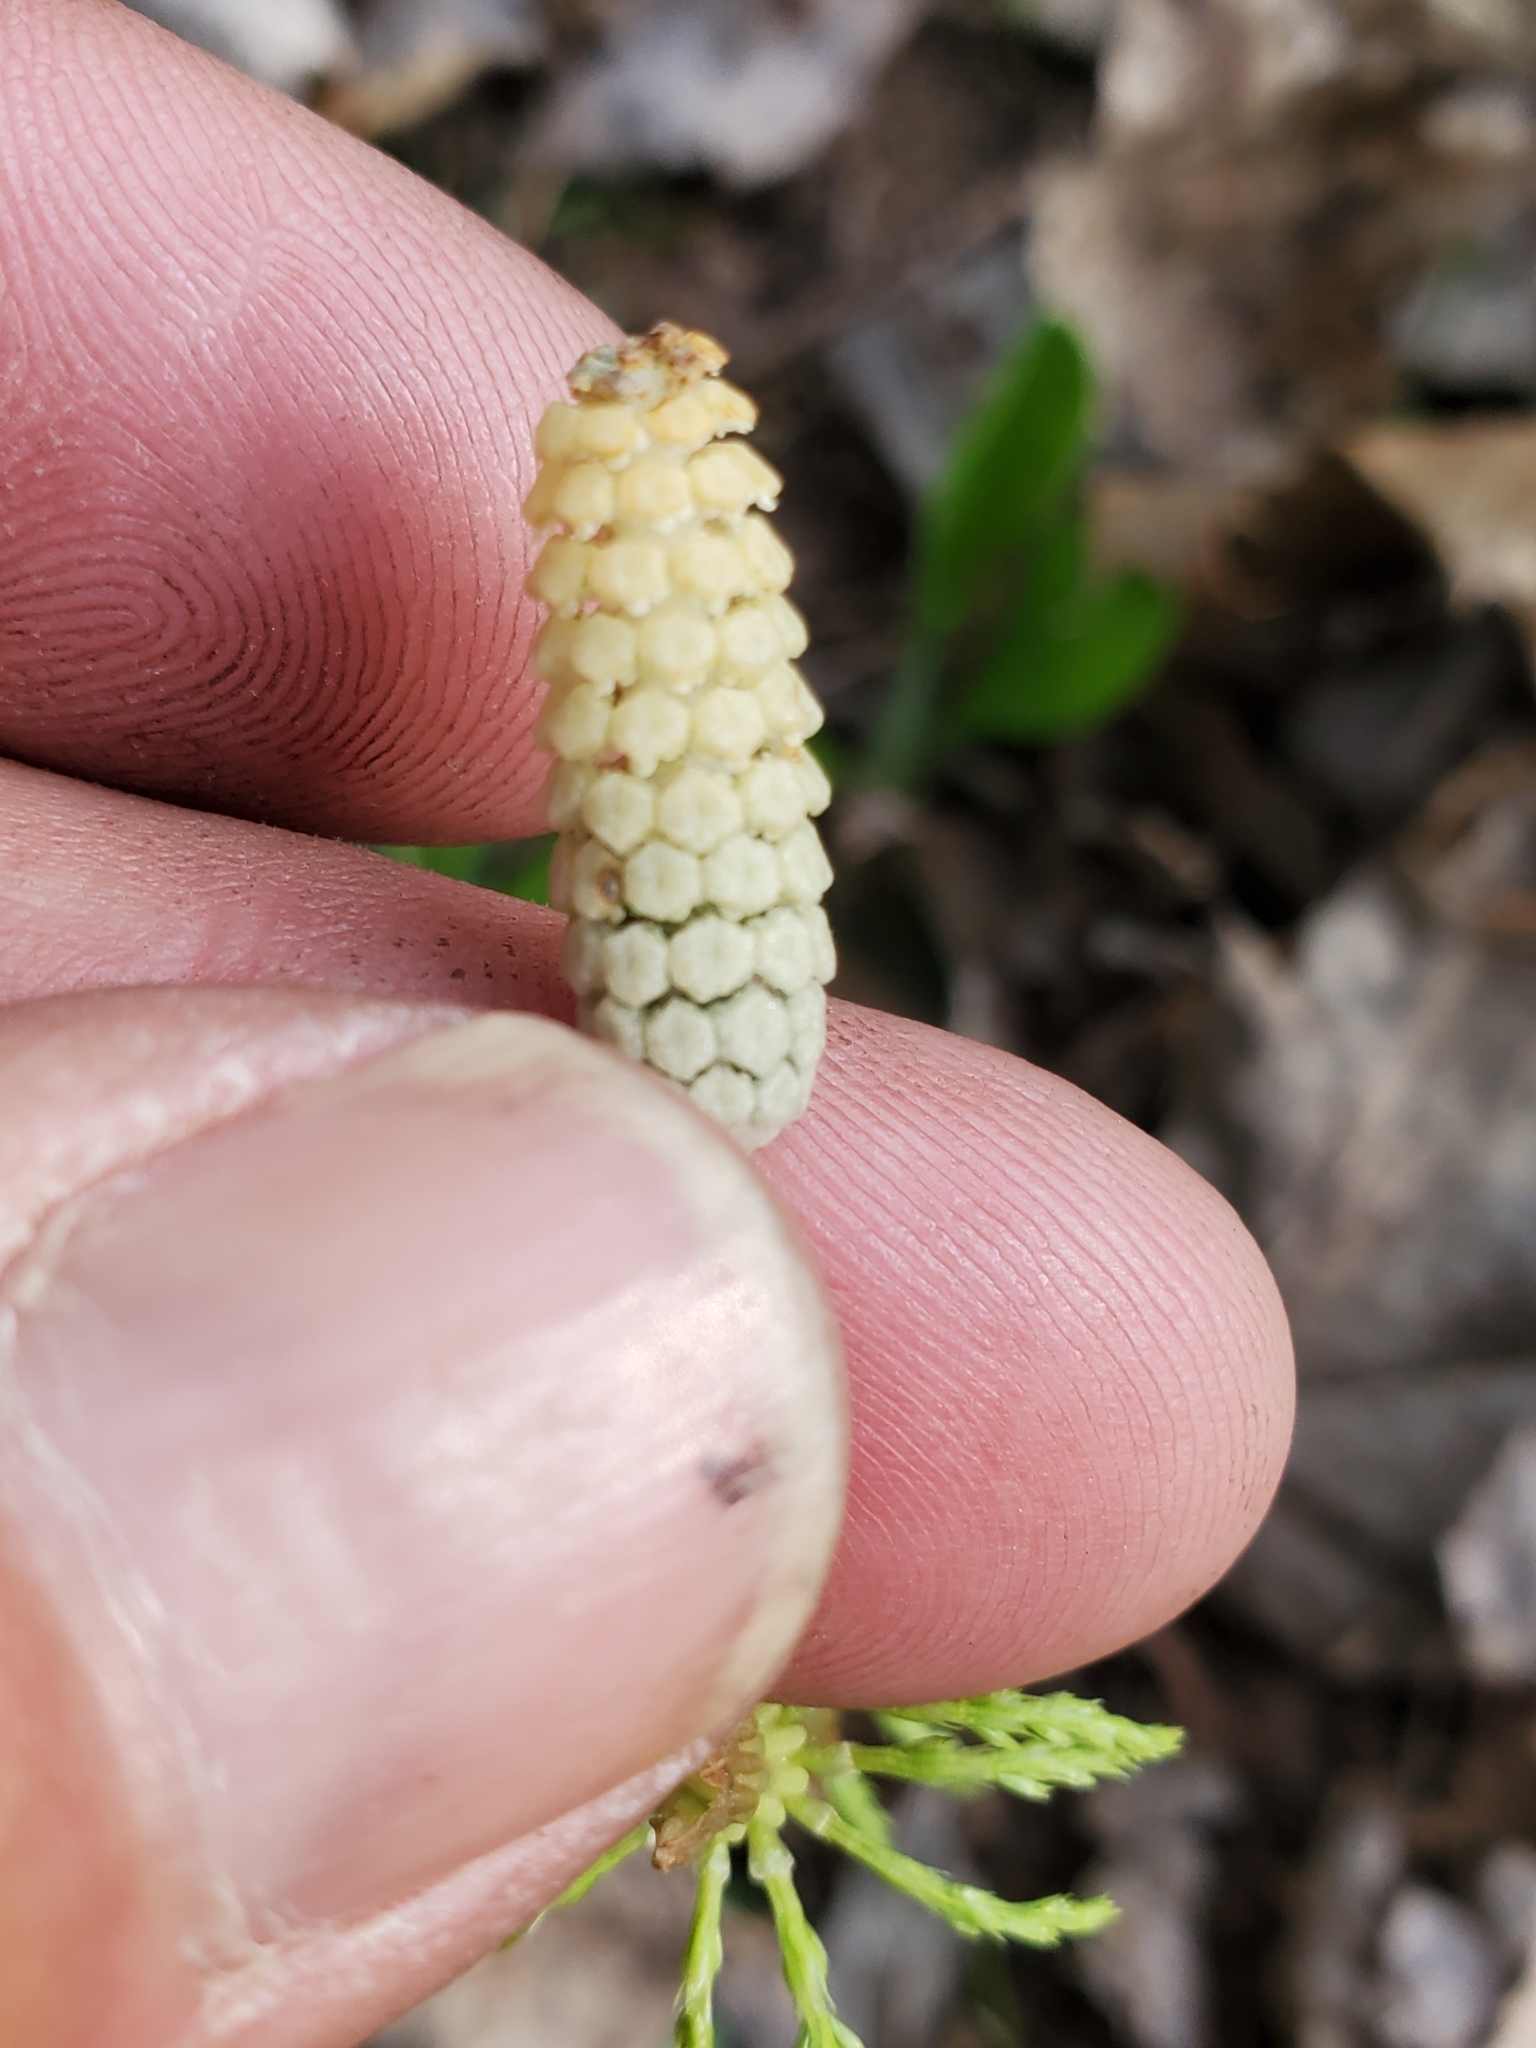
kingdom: Plantae
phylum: Tracheophyta
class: Polypodiopsida
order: Equisetales
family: Equisetaceae
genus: Equisetum
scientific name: Equisetum sylvaticum
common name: Wood horsetail
